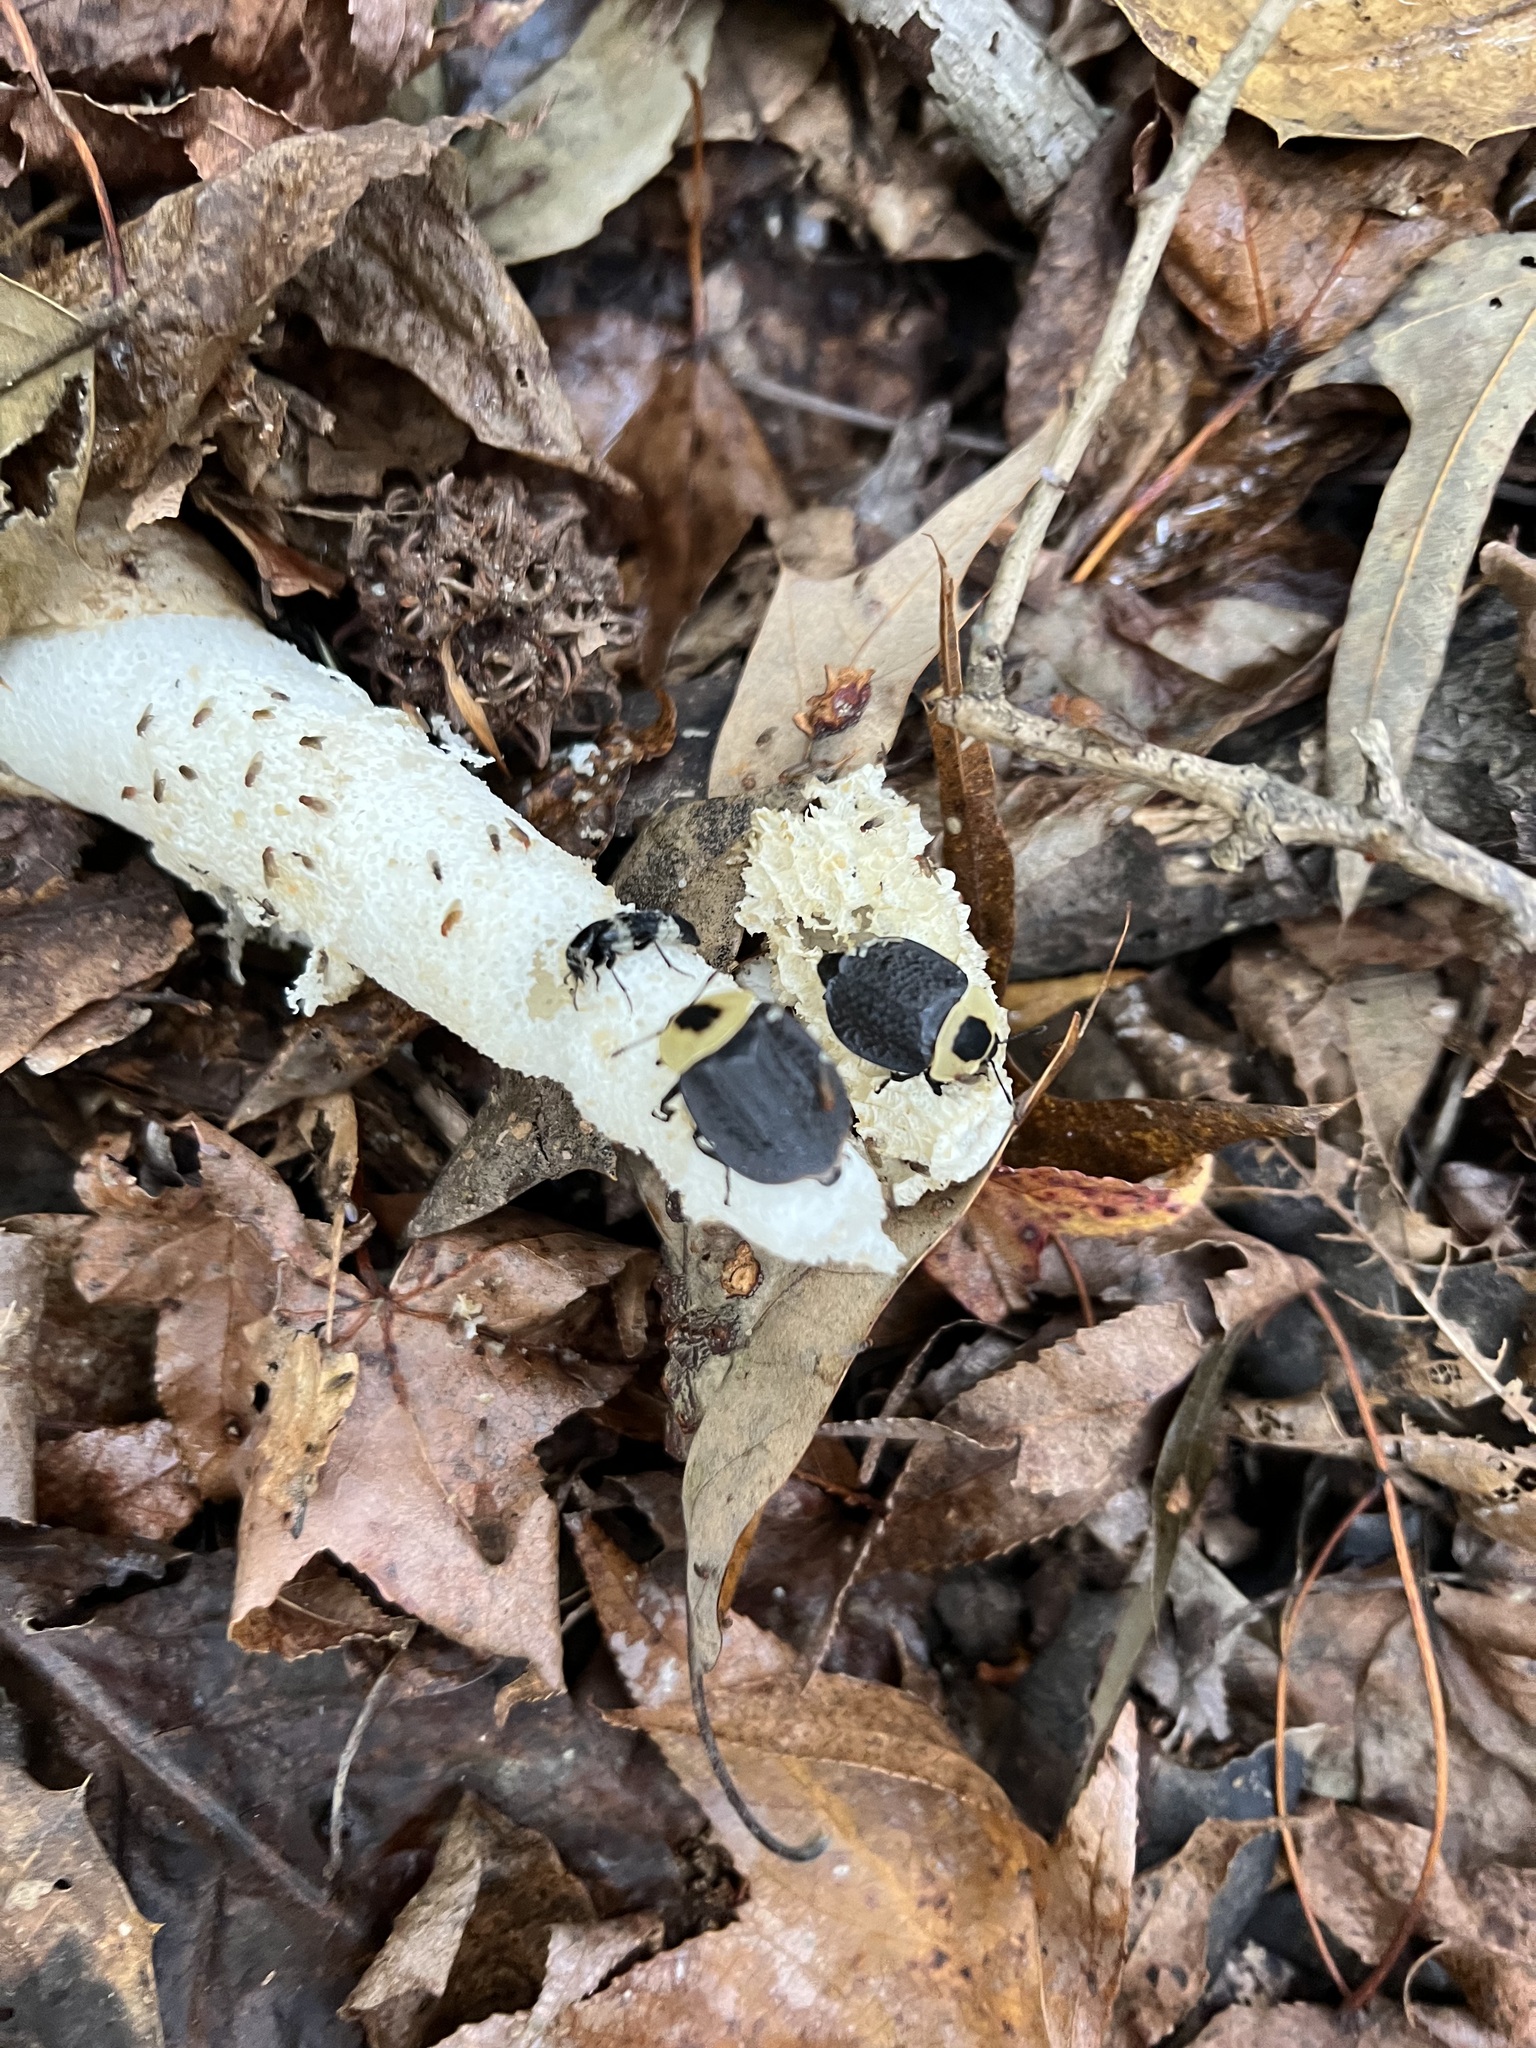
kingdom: Animalia
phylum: Arthropoda
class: Insecta
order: Coleoptera
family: Staphylinidae
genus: Necrophila
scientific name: Necrophila americana
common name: American carrion beetle
